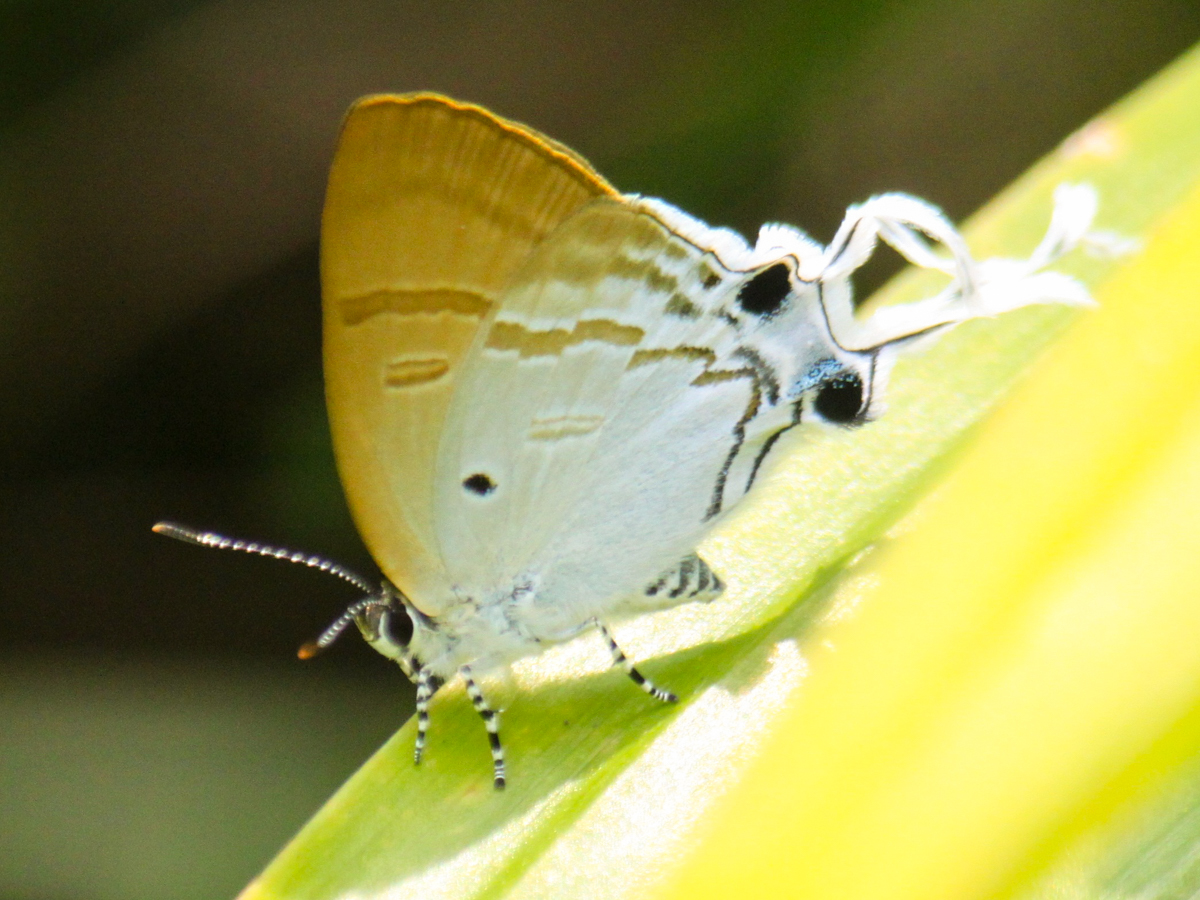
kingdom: Animalia
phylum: Arthropoda
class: Insecta
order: Lepidoptera
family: Lycaenidae
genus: Zeltus
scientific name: Zeltus amasa
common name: Fluffy tit
